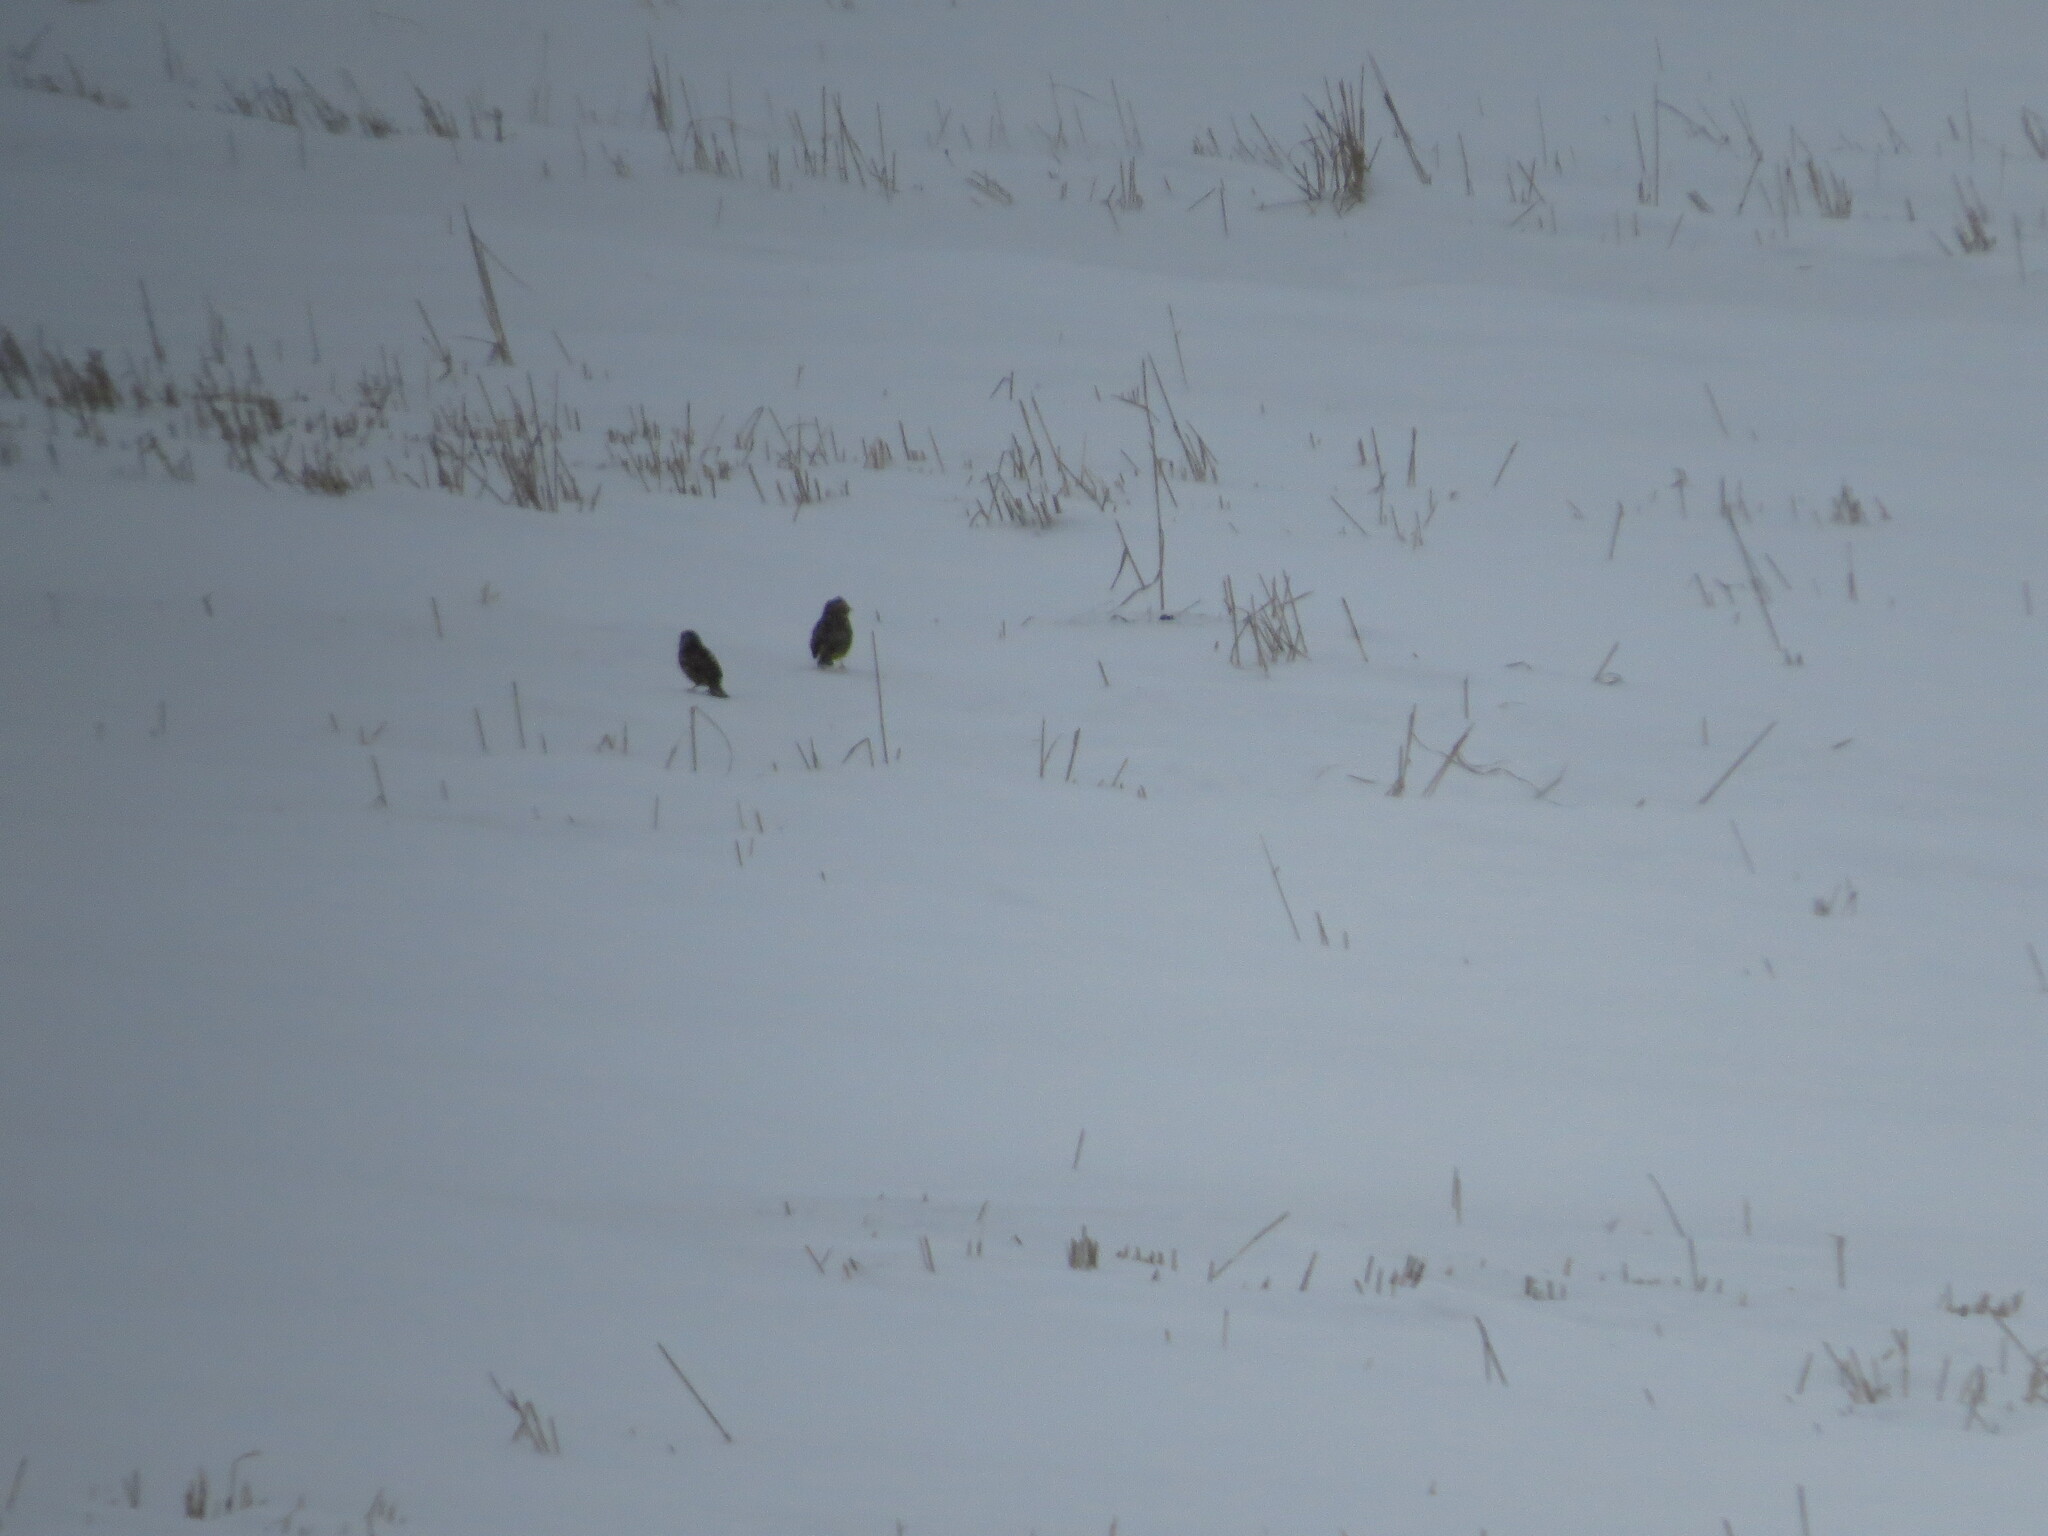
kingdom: Animalia
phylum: Chordata
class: Aves
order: Passeriformes
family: Emberizidae
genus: Emberiza
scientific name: Emberiza citrinella
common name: Yellowhammer
